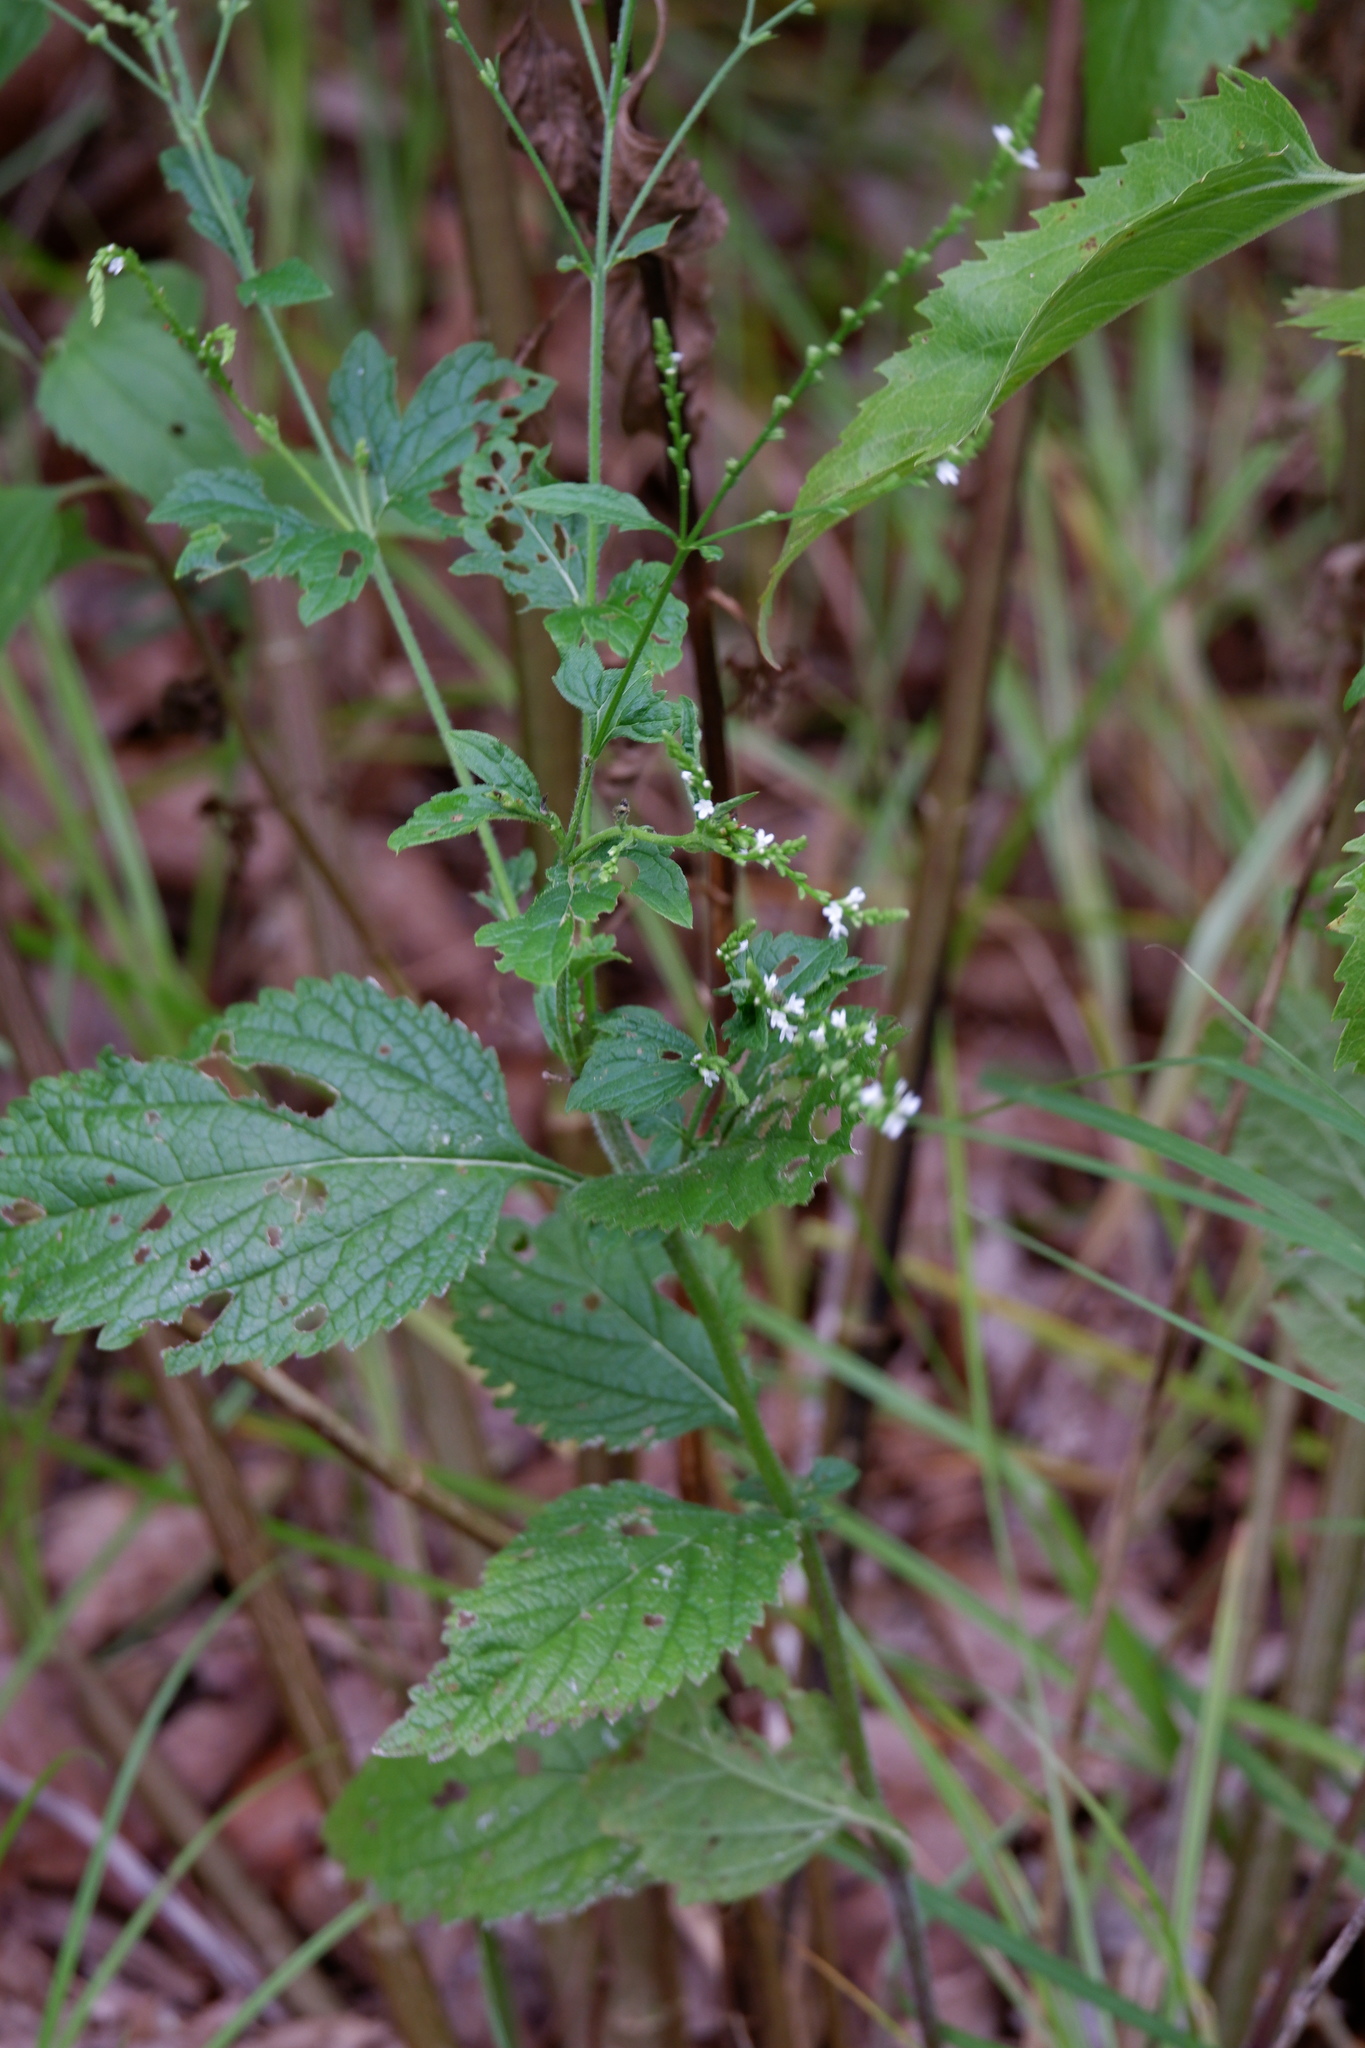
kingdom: Plantae
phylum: Tracheophyta
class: Magnoliopsida
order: Lamiales
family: Verbenaceae
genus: Verbena
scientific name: Verbena urticifolia
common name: Nettle-leaved vervain
